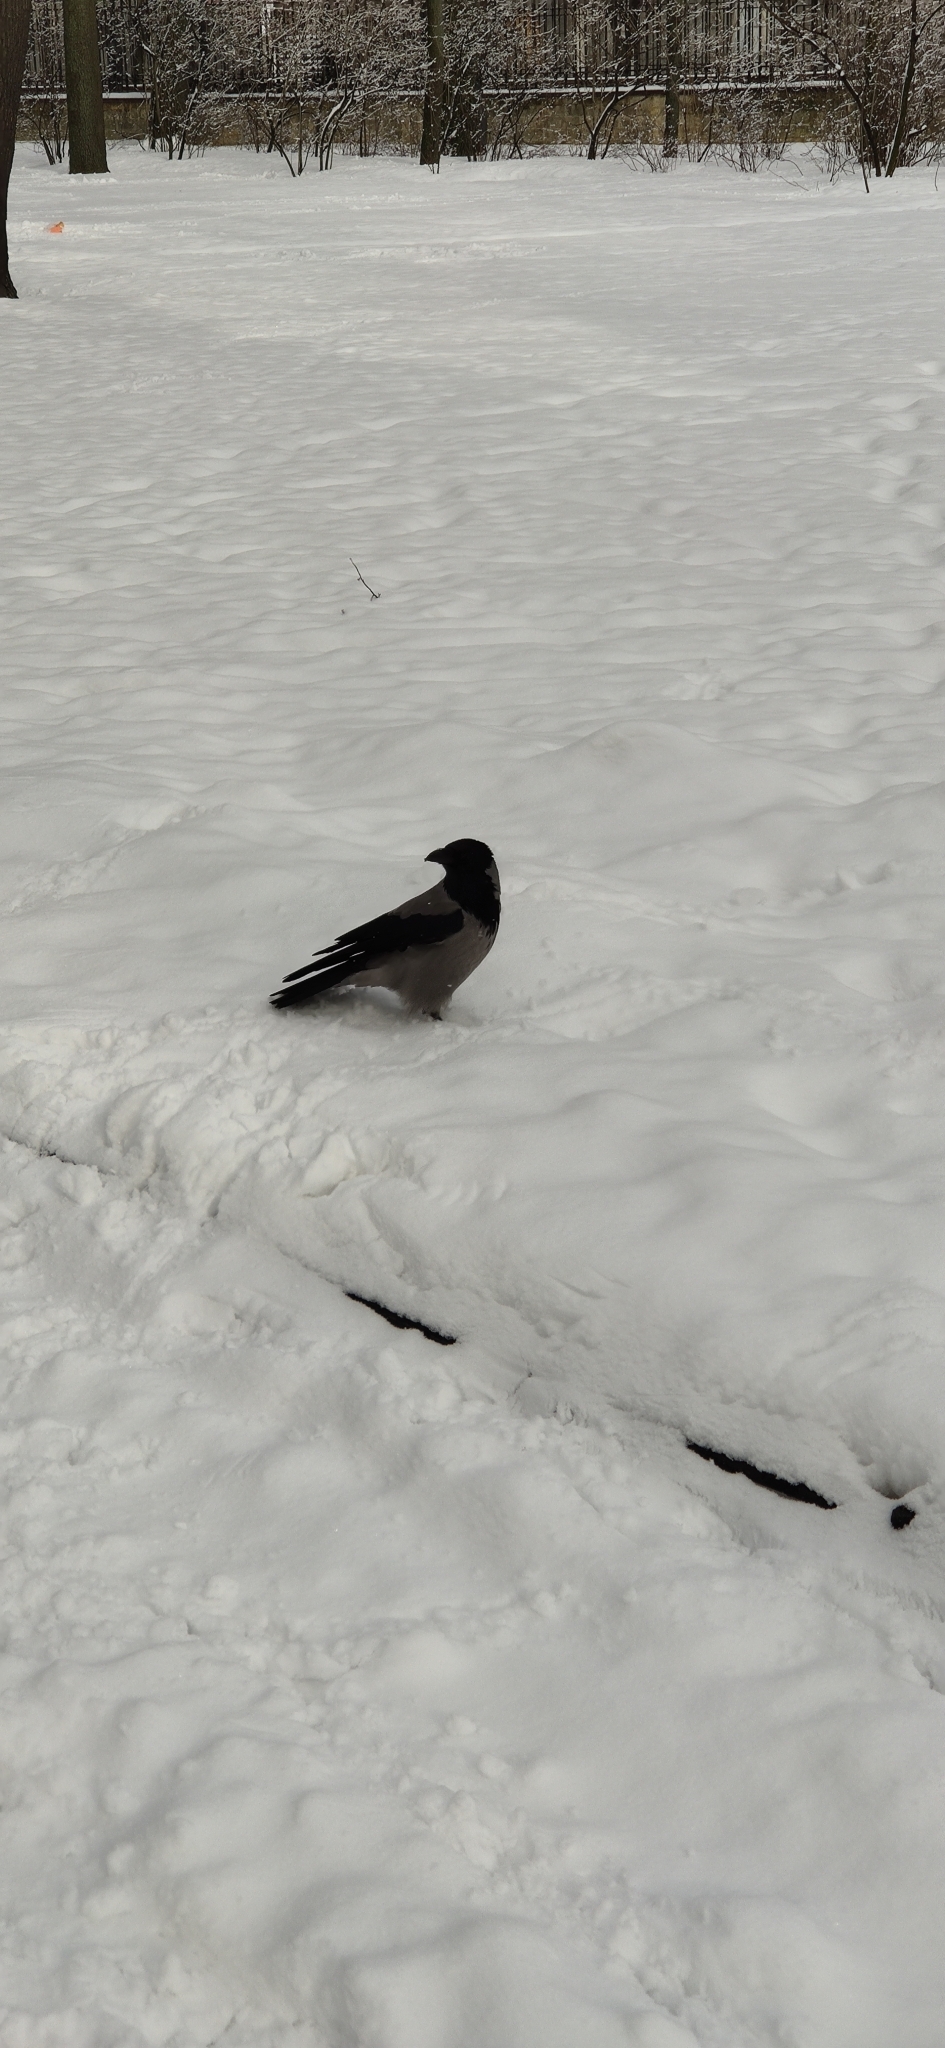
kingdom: Animalia
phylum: Chordata
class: Aves
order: Passeriformes
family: Corvidae
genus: Corvus
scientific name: Corvus cornix
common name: Hooded crow
